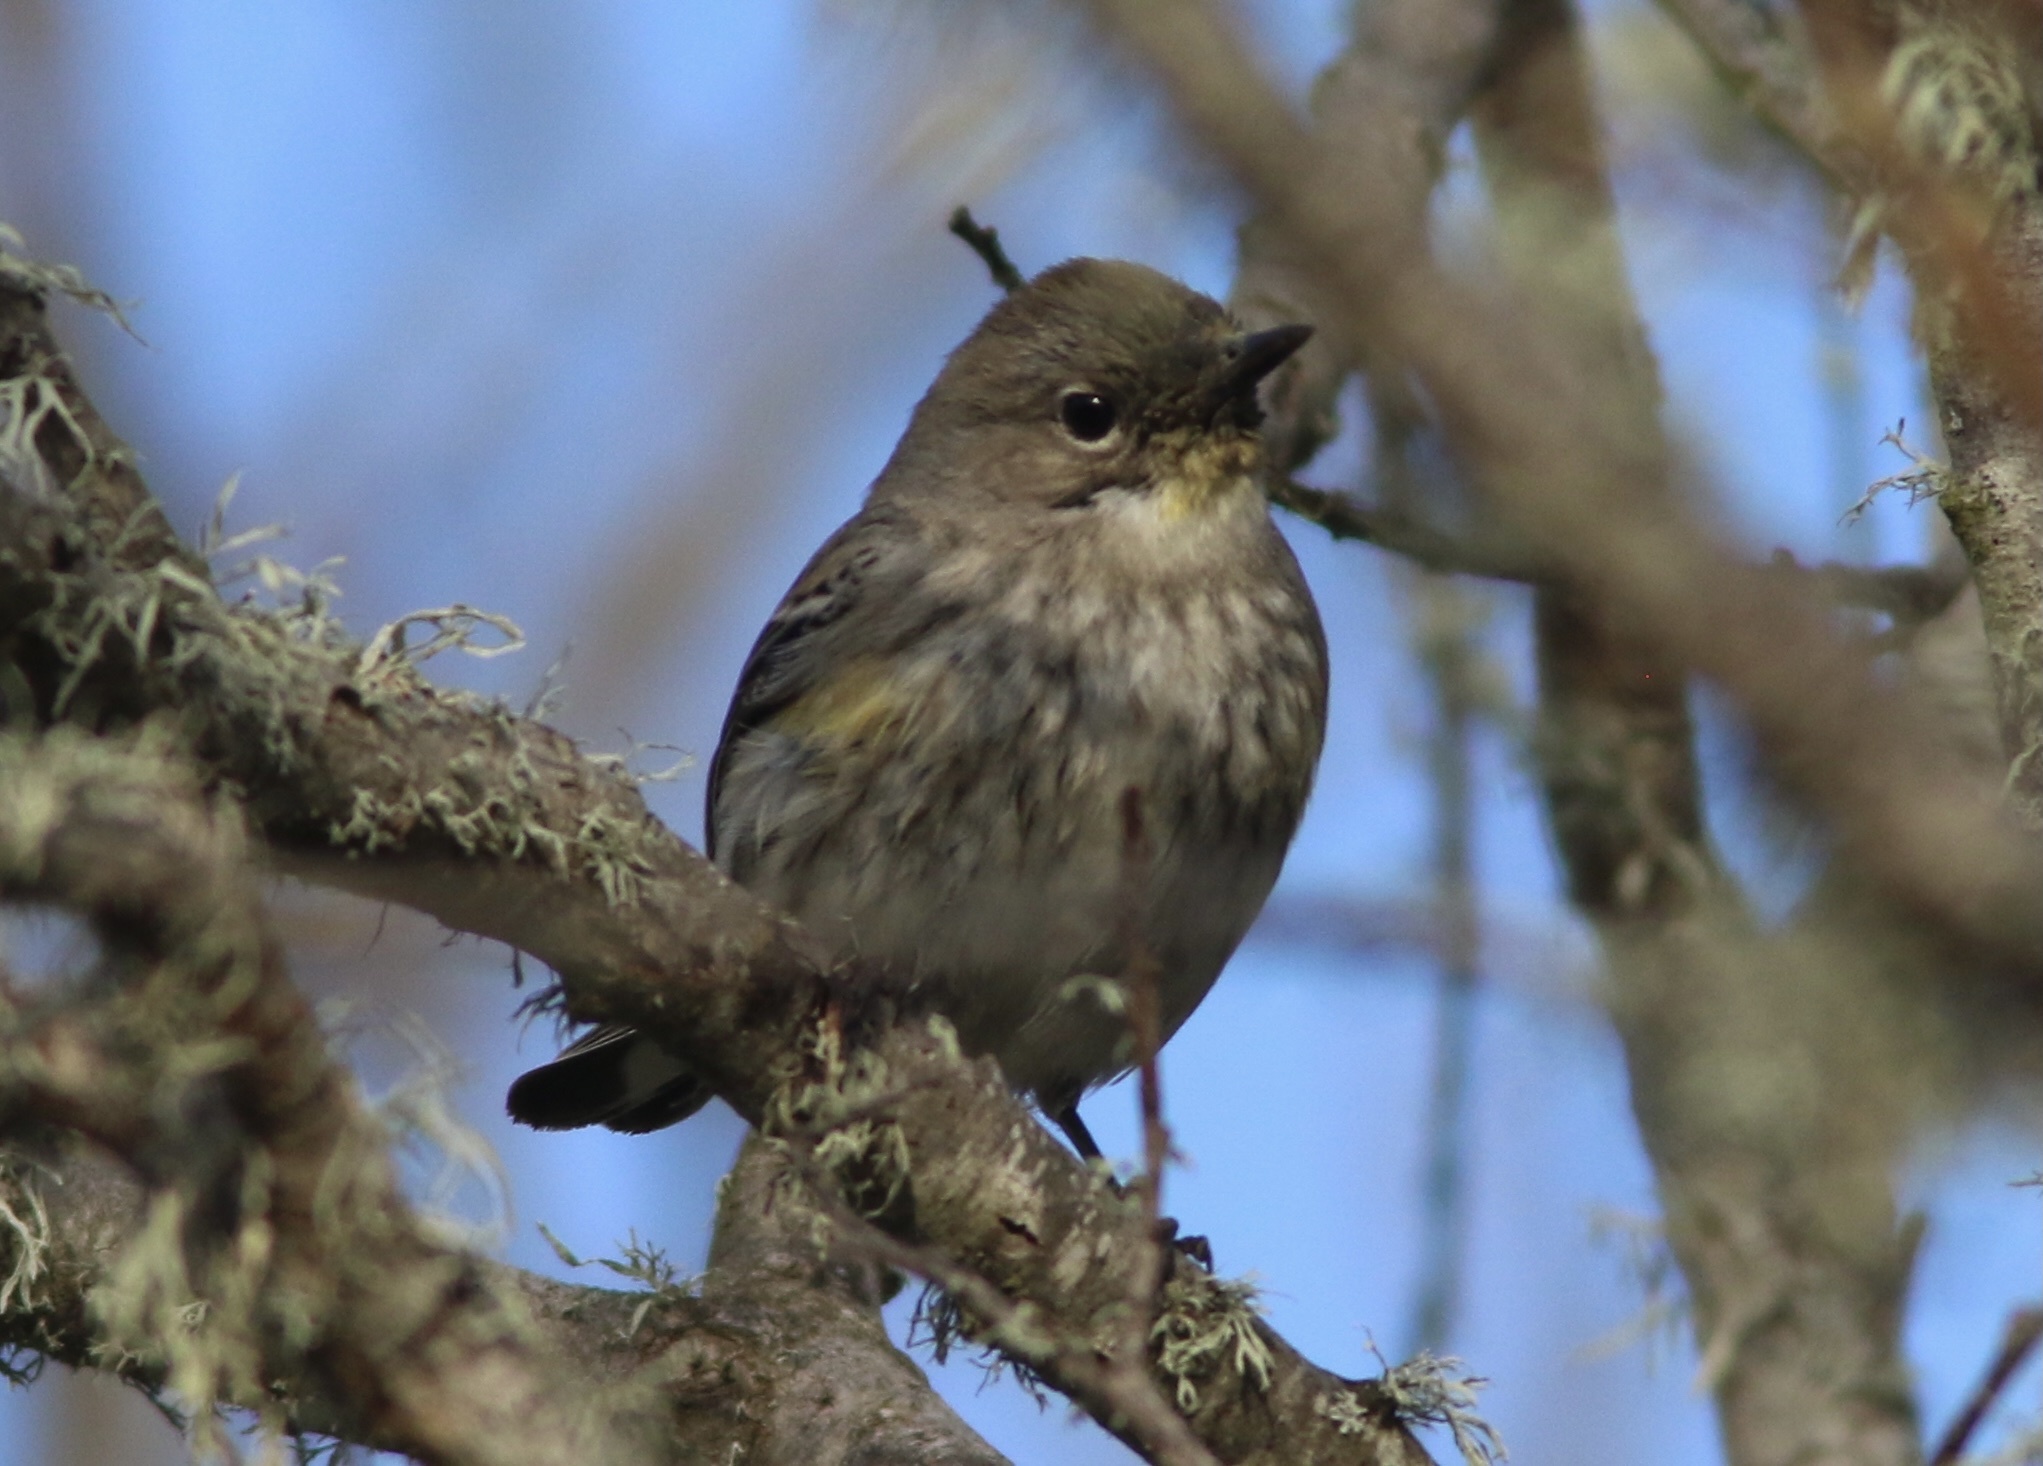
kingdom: Animalia
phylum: Chordata
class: Aves
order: Passeriformes
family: Parulidae
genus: Setophaga
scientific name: Setophaga coronata
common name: Myrtle warbler
